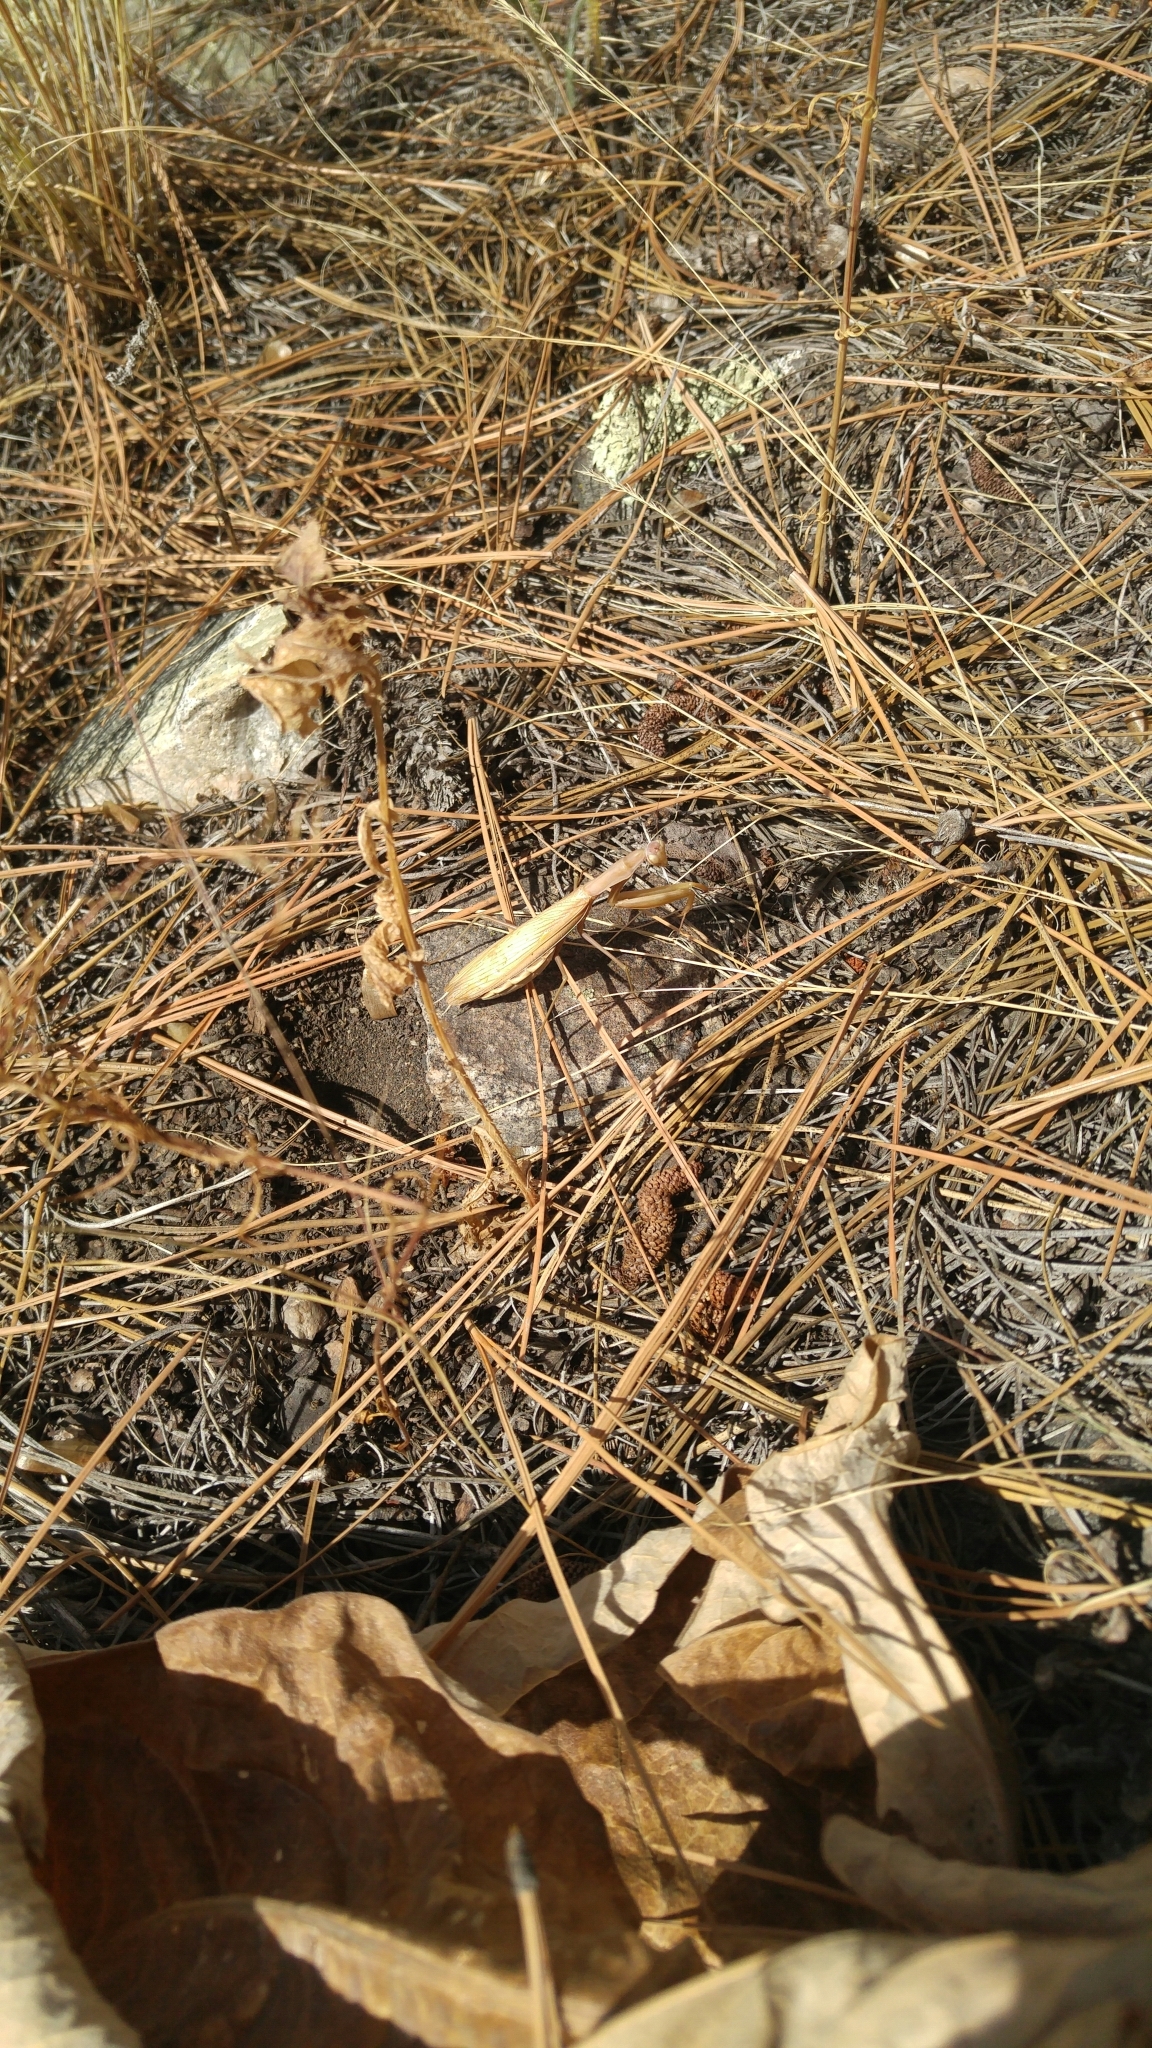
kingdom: Animalia
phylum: Arthropoda
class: Insecta
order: Mantodea
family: Mantidae
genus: Mantis
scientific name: Mantis religiosa
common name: Praying mantis
